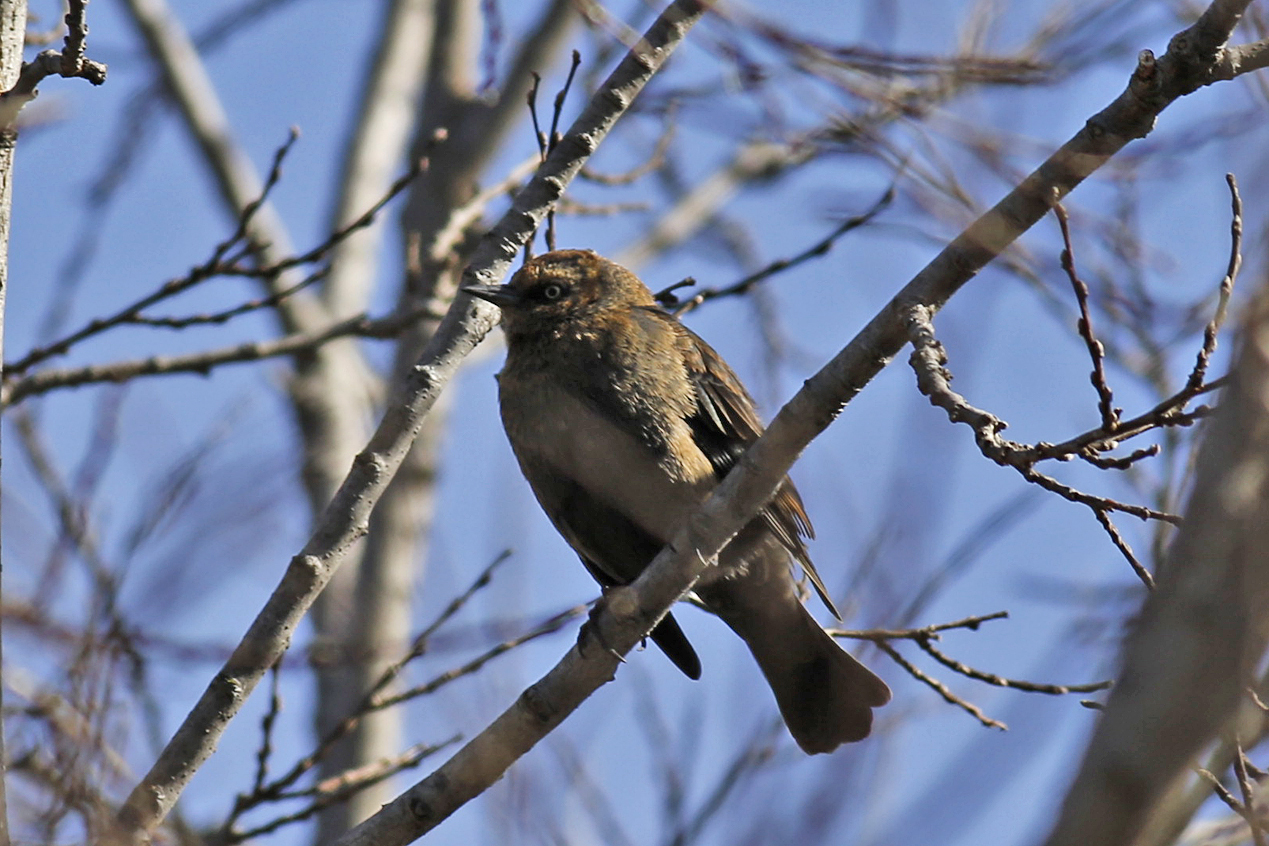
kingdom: Animalia
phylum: Chordata
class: Aves
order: Passeriformes
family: Icteridae
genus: Euphagus
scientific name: Euphagus carolinus
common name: Rusty blackbird
